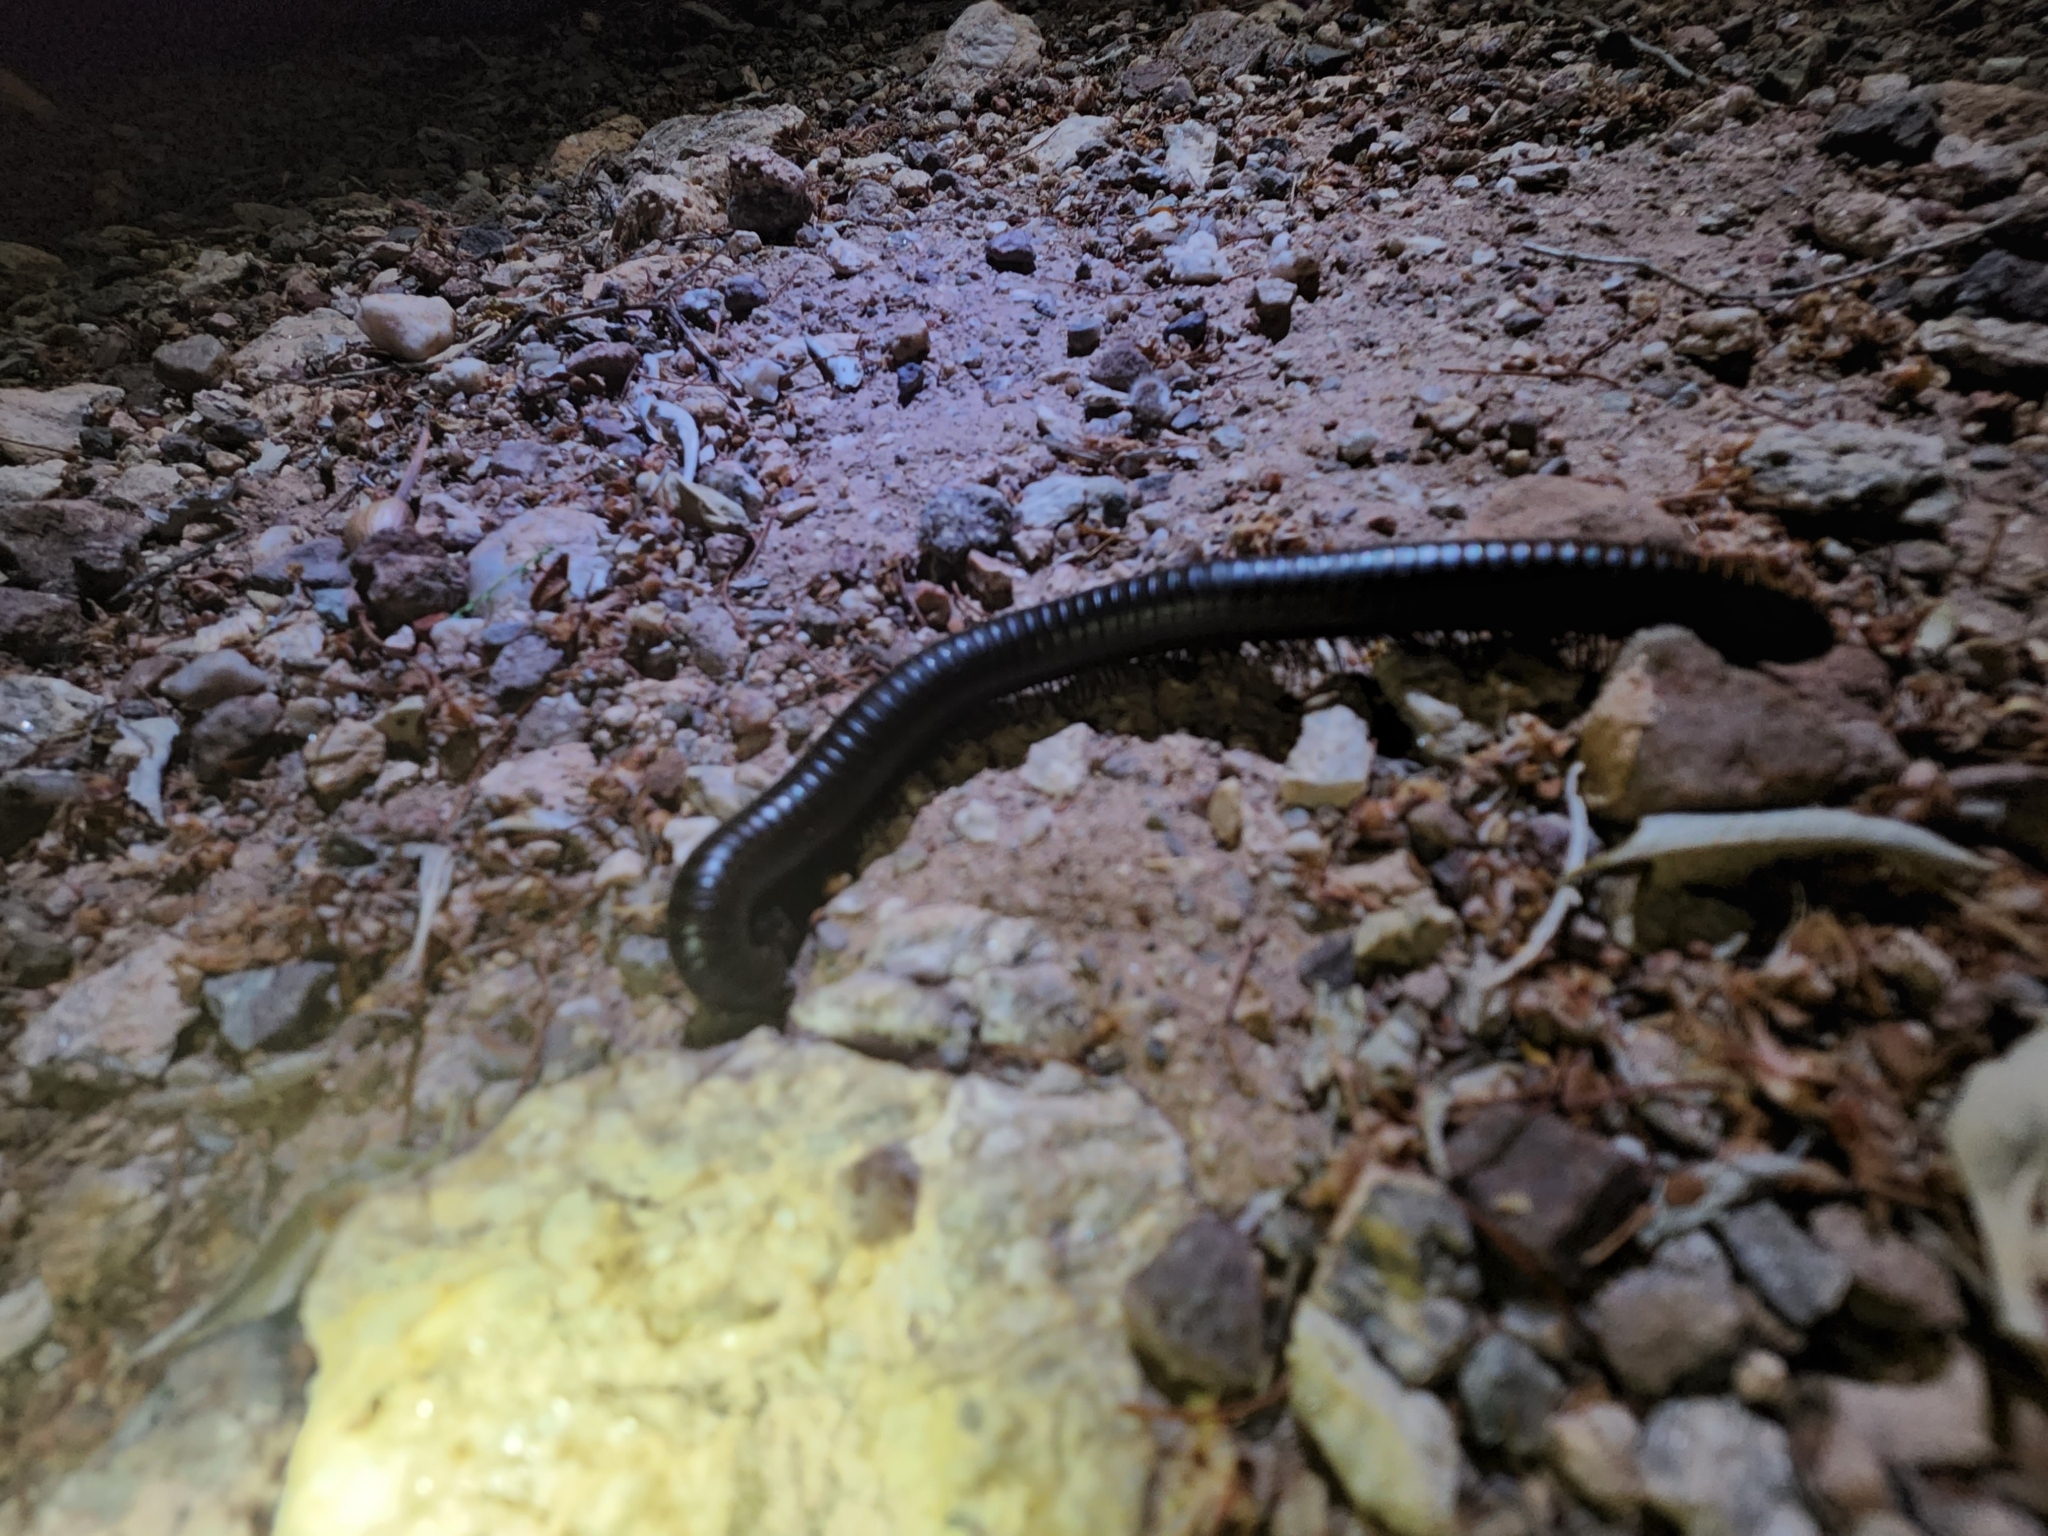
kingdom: Animalia
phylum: Arthropoda
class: Diplopoda
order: Spirostreptida
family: Spirostreptidae
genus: Orthoporus
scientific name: Orthoporus ornatus
